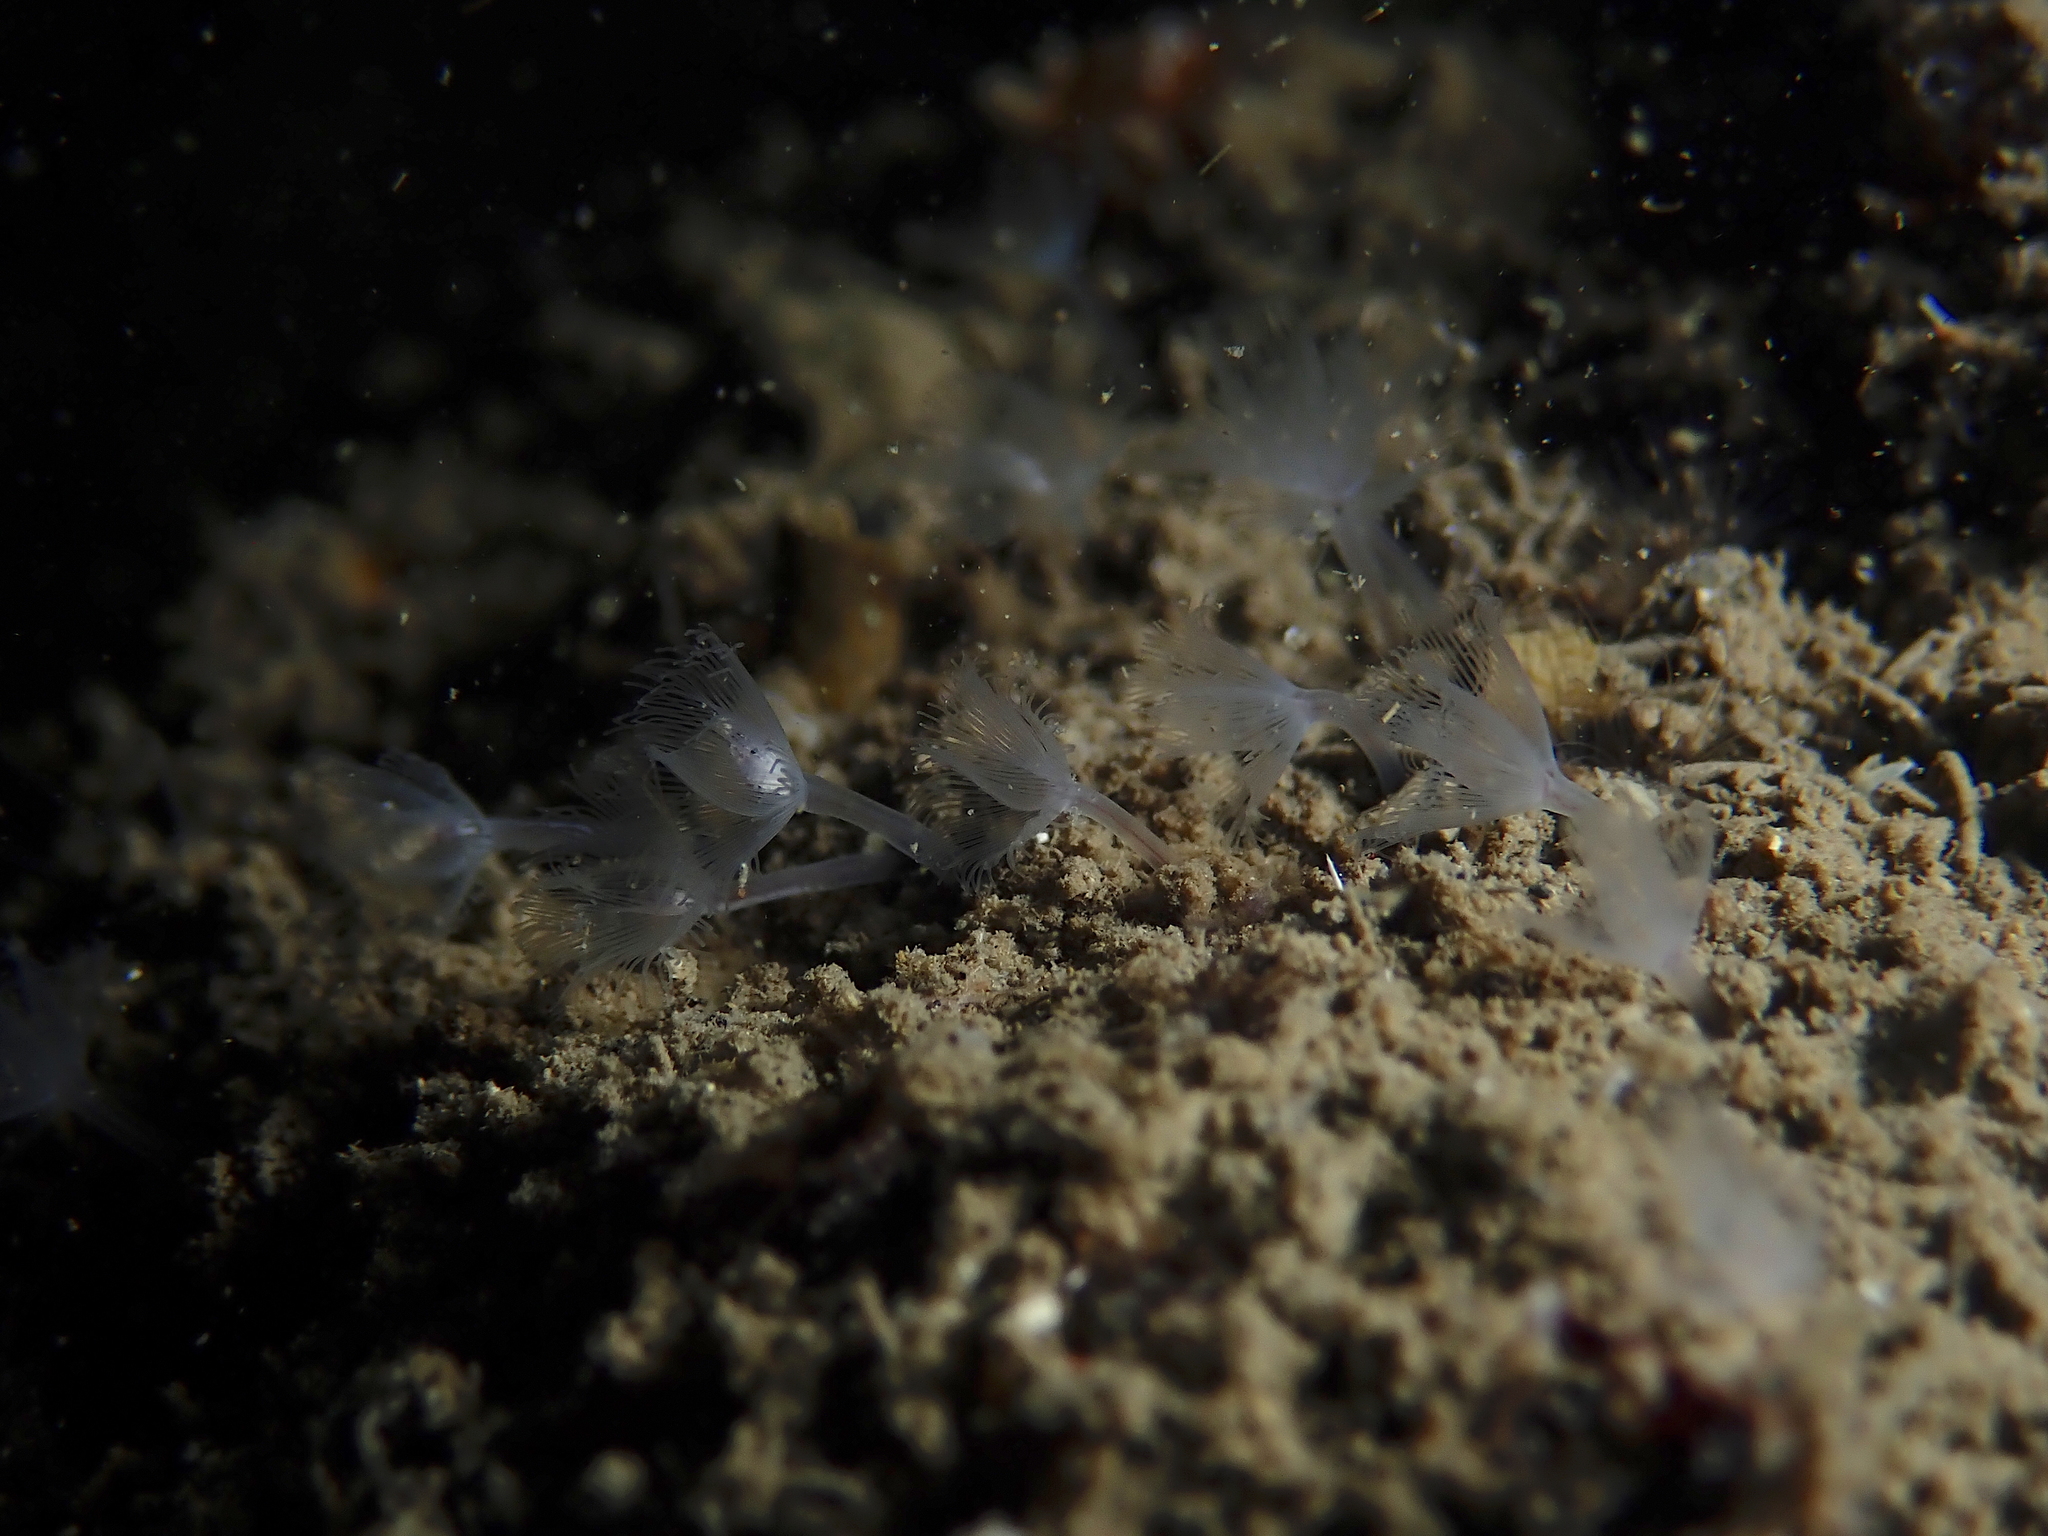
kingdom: Animalia
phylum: Phoronida
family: Phoronidae
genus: Phoronis
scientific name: Phoronis hippocrepia
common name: Phoronid
